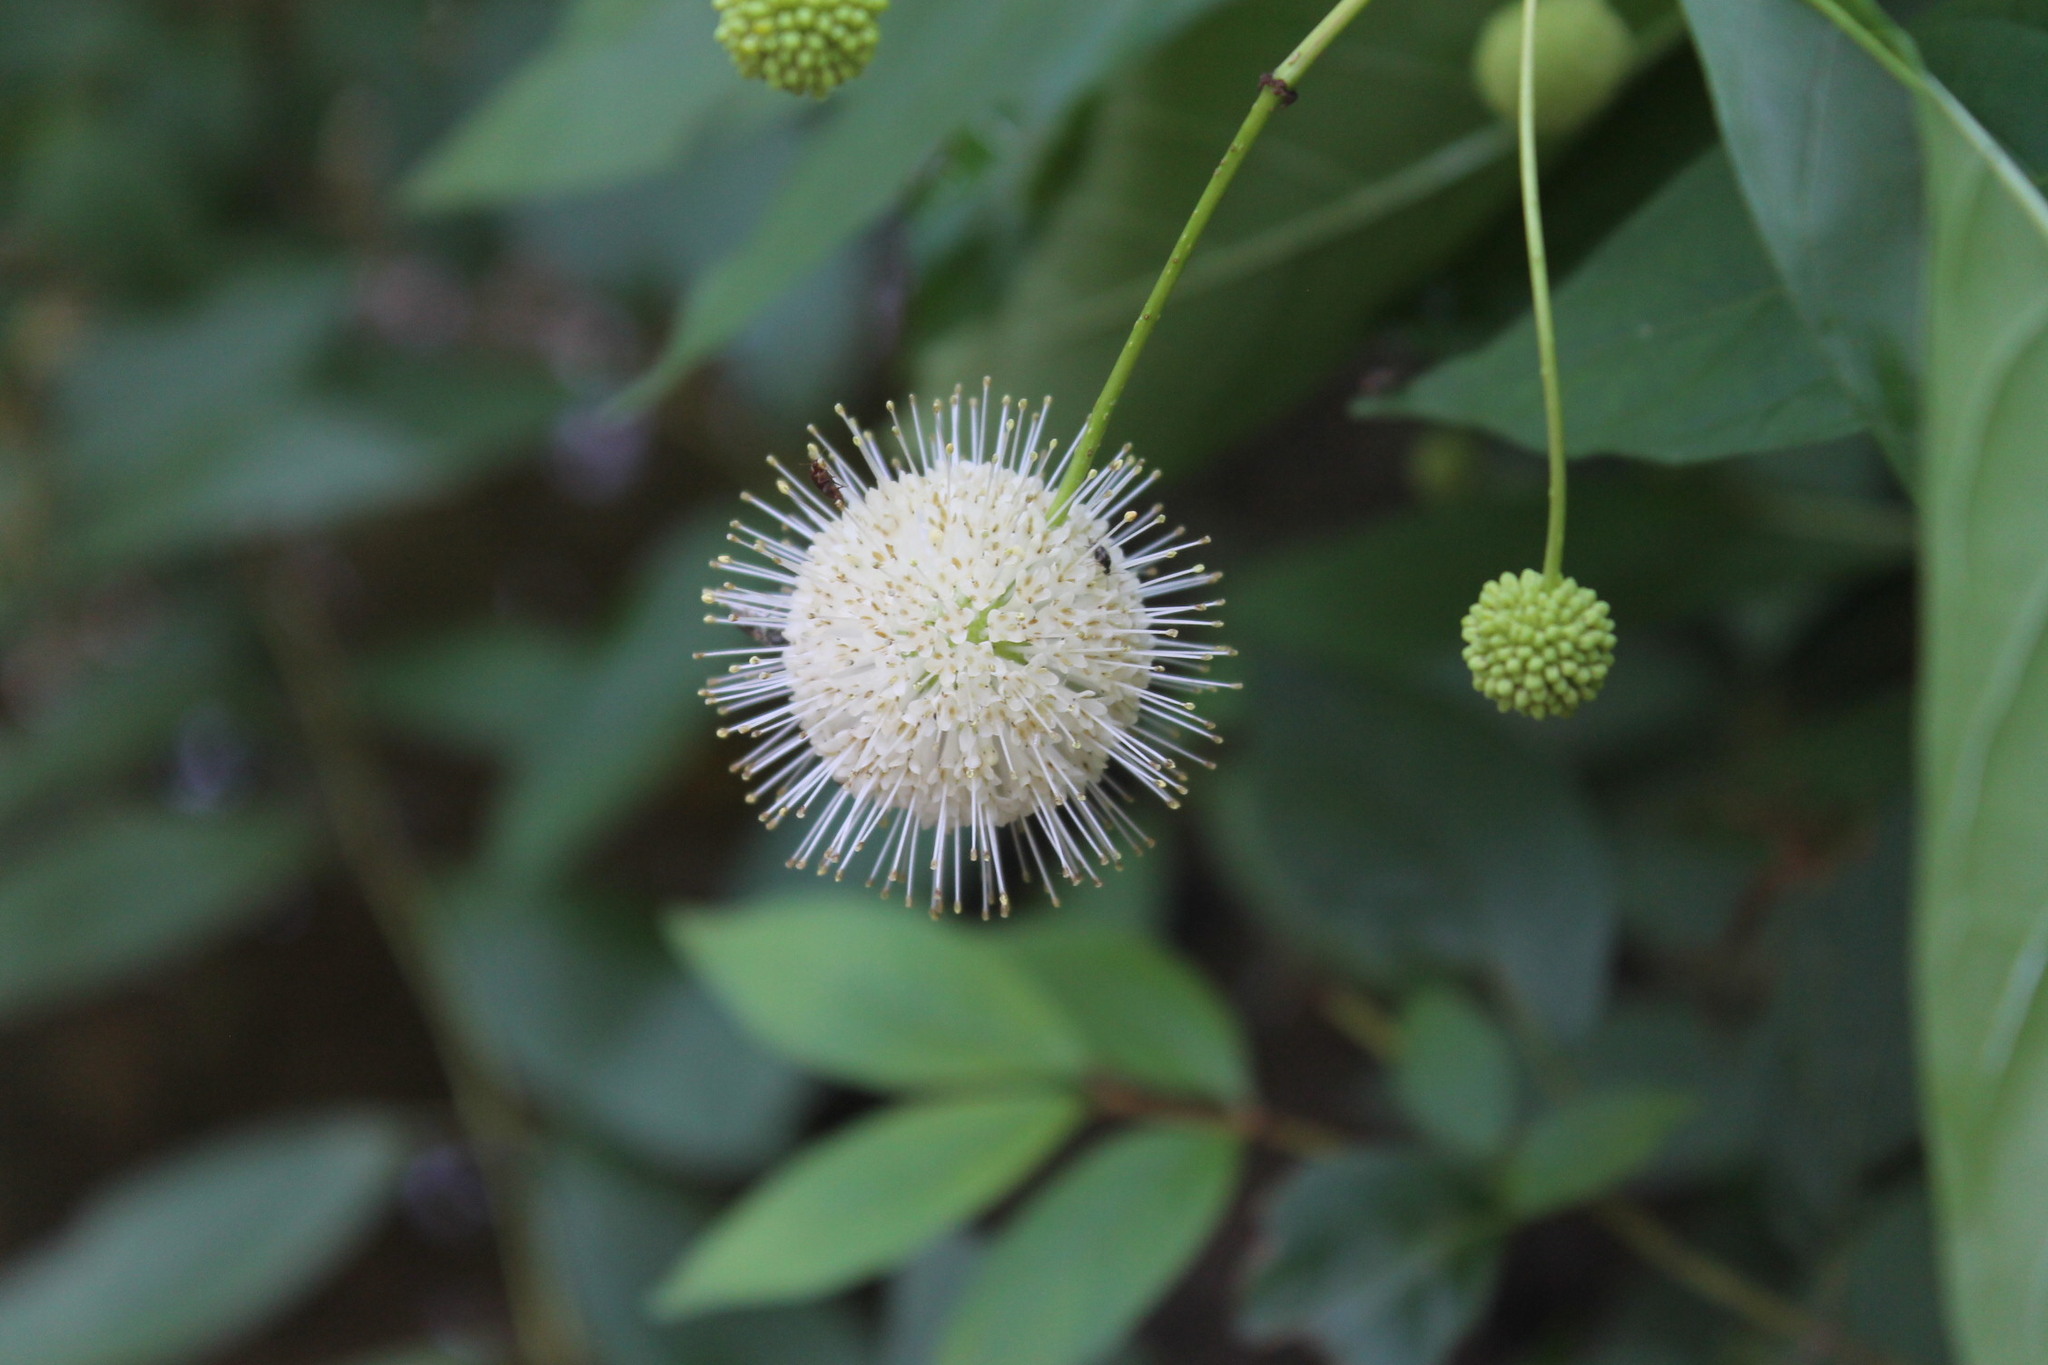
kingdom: Plantae
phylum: Tracheophyta
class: Magnoliopsida
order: Gentianales
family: Rubiaceae
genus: Cephalanthus
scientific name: Cephalanthus occidentalis
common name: Button-willow
